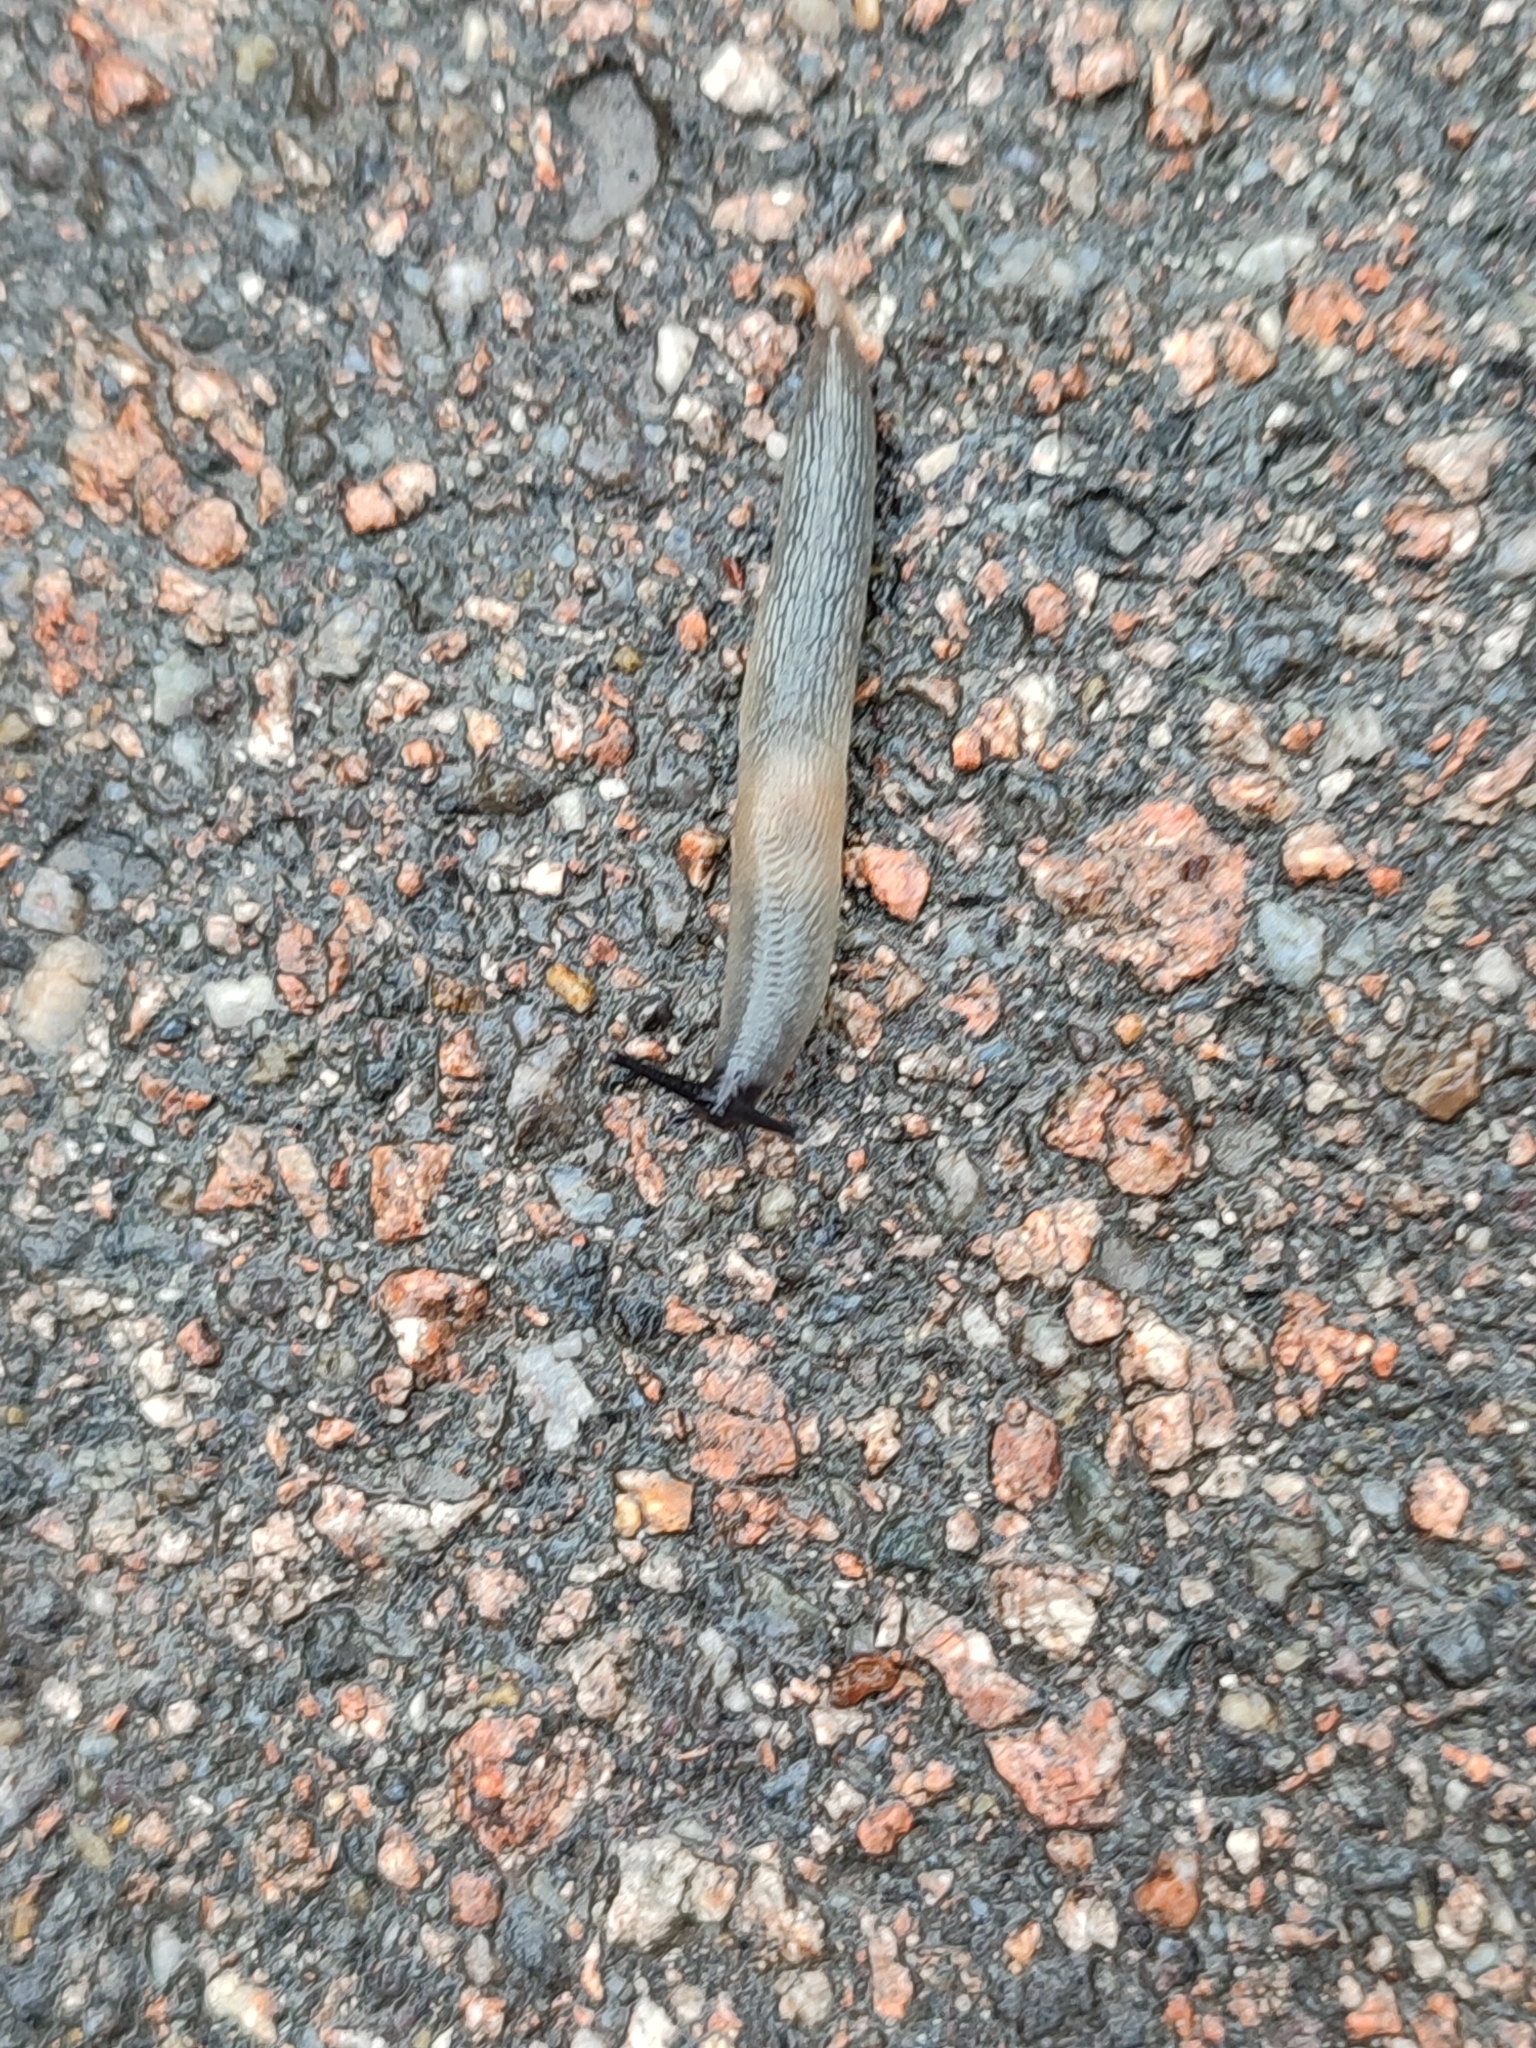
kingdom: Animalia
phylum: Mollusca
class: Gastropoda
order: Stylommatophora
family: Agriolimacidae
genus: Krynickillus
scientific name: Krynickillus melanocephalus
